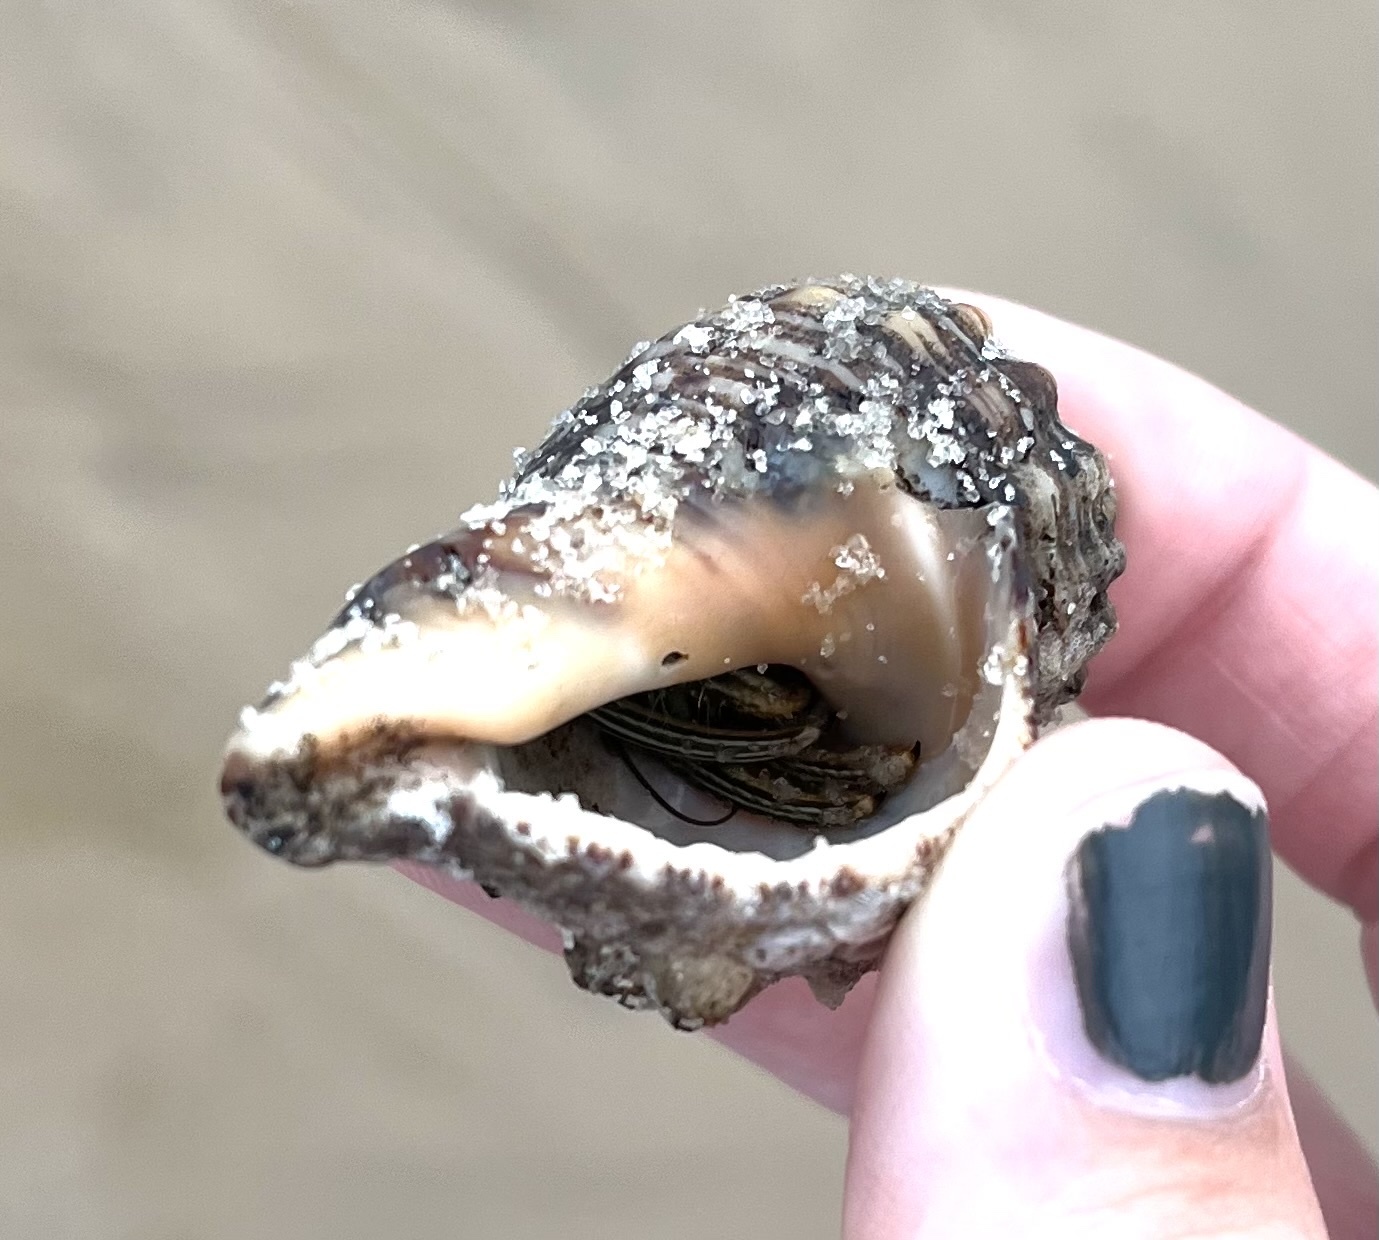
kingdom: Animalia
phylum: Arthropoda
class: Malacostraca
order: Decapoda
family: Diogenidae
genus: Clibanarius
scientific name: Clibanarius vittatus
